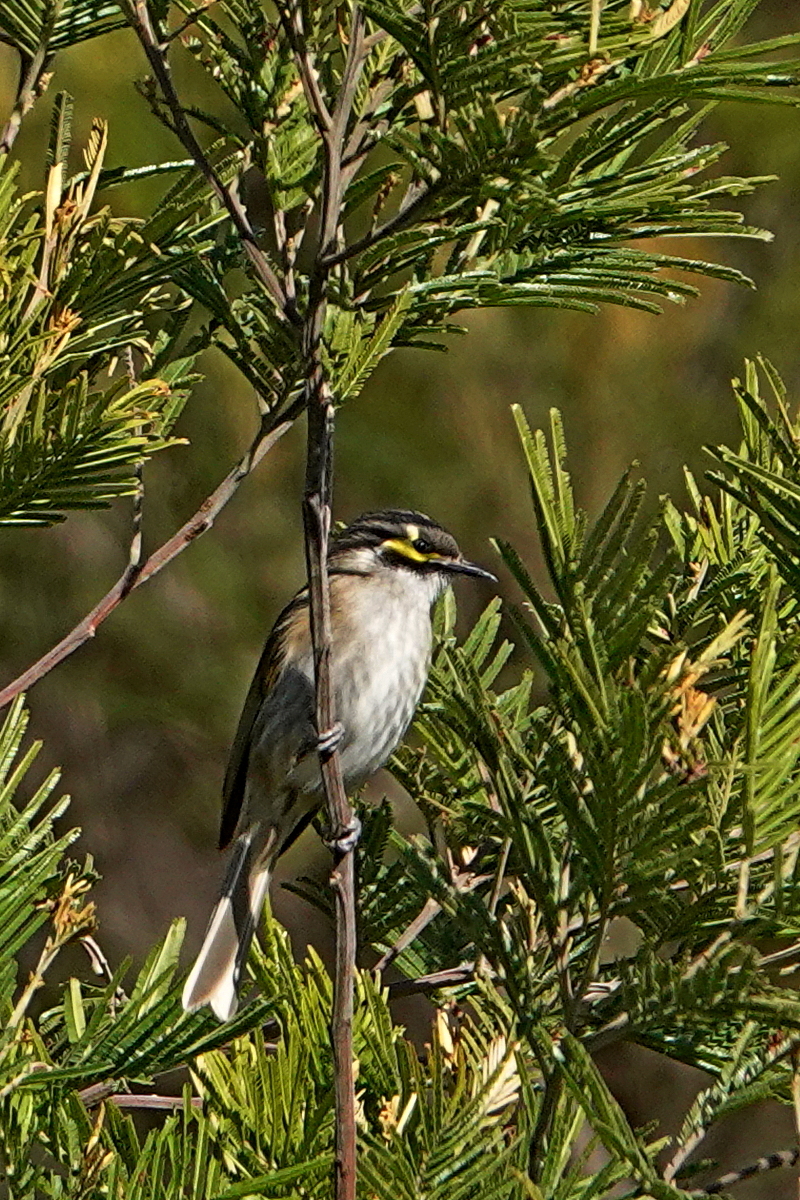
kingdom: Animalia
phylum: Chordata
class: Aves
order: Passeriformes
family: Meliphagidae
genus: Caligavis
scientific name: Caligavis chrysops
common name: Yellow-faced honeyeater
